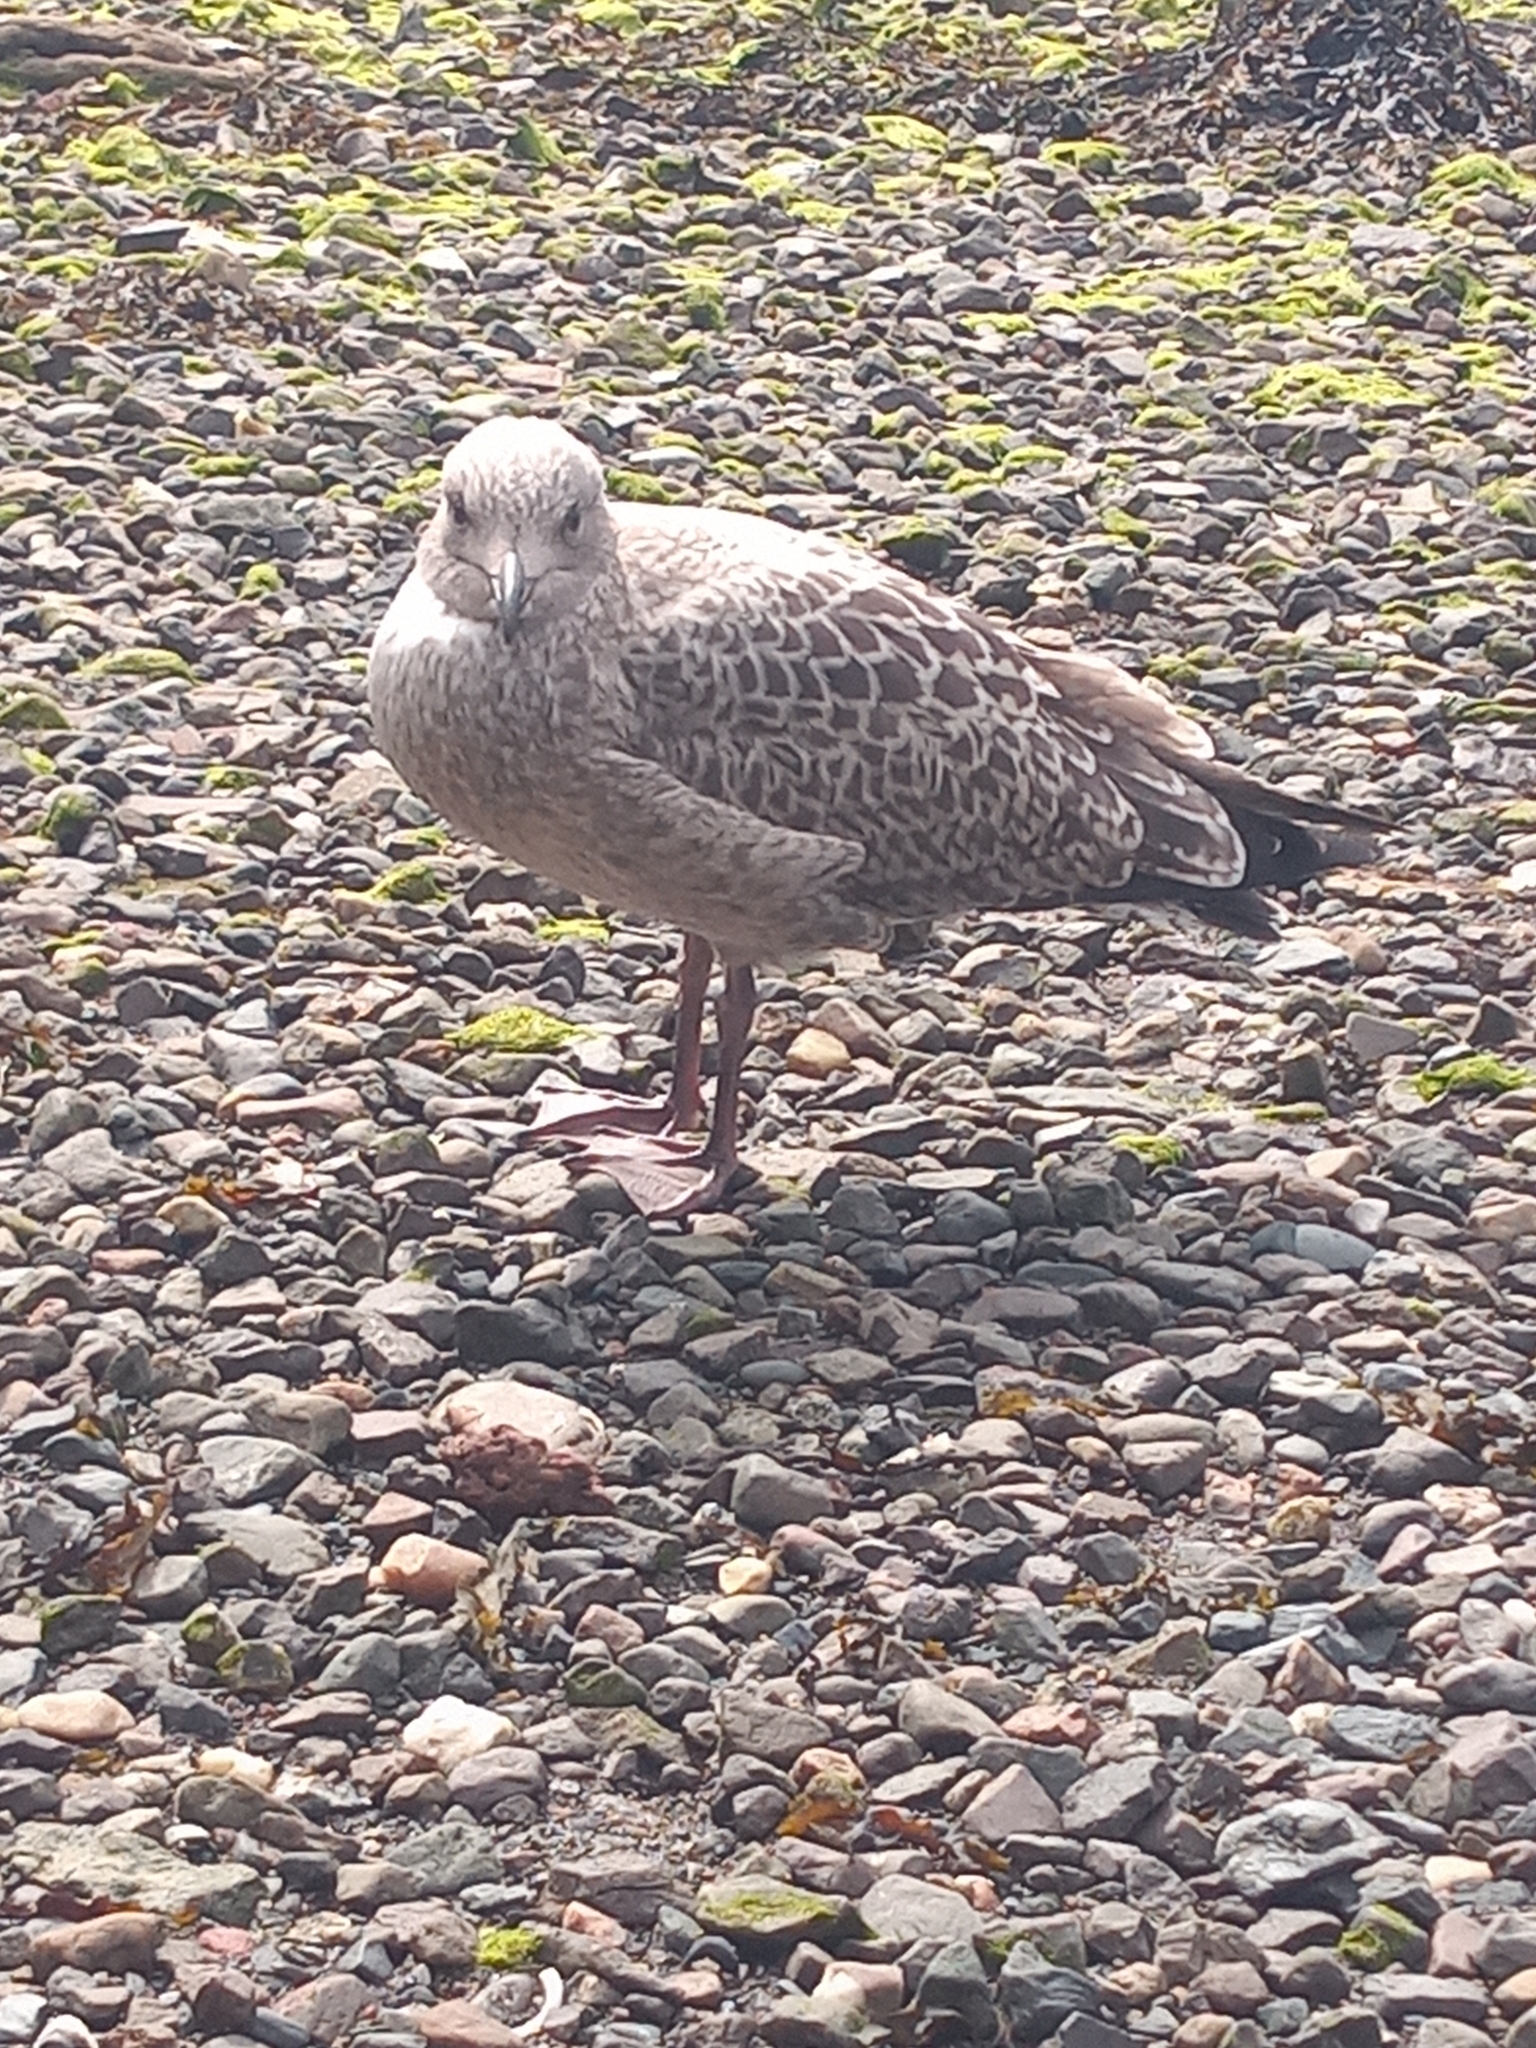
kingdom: Animalia
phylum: Chordata
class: Aves
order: Charadriiformes
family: Laridae
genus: Larus
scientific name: Larus argentatus
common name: Herring gull
